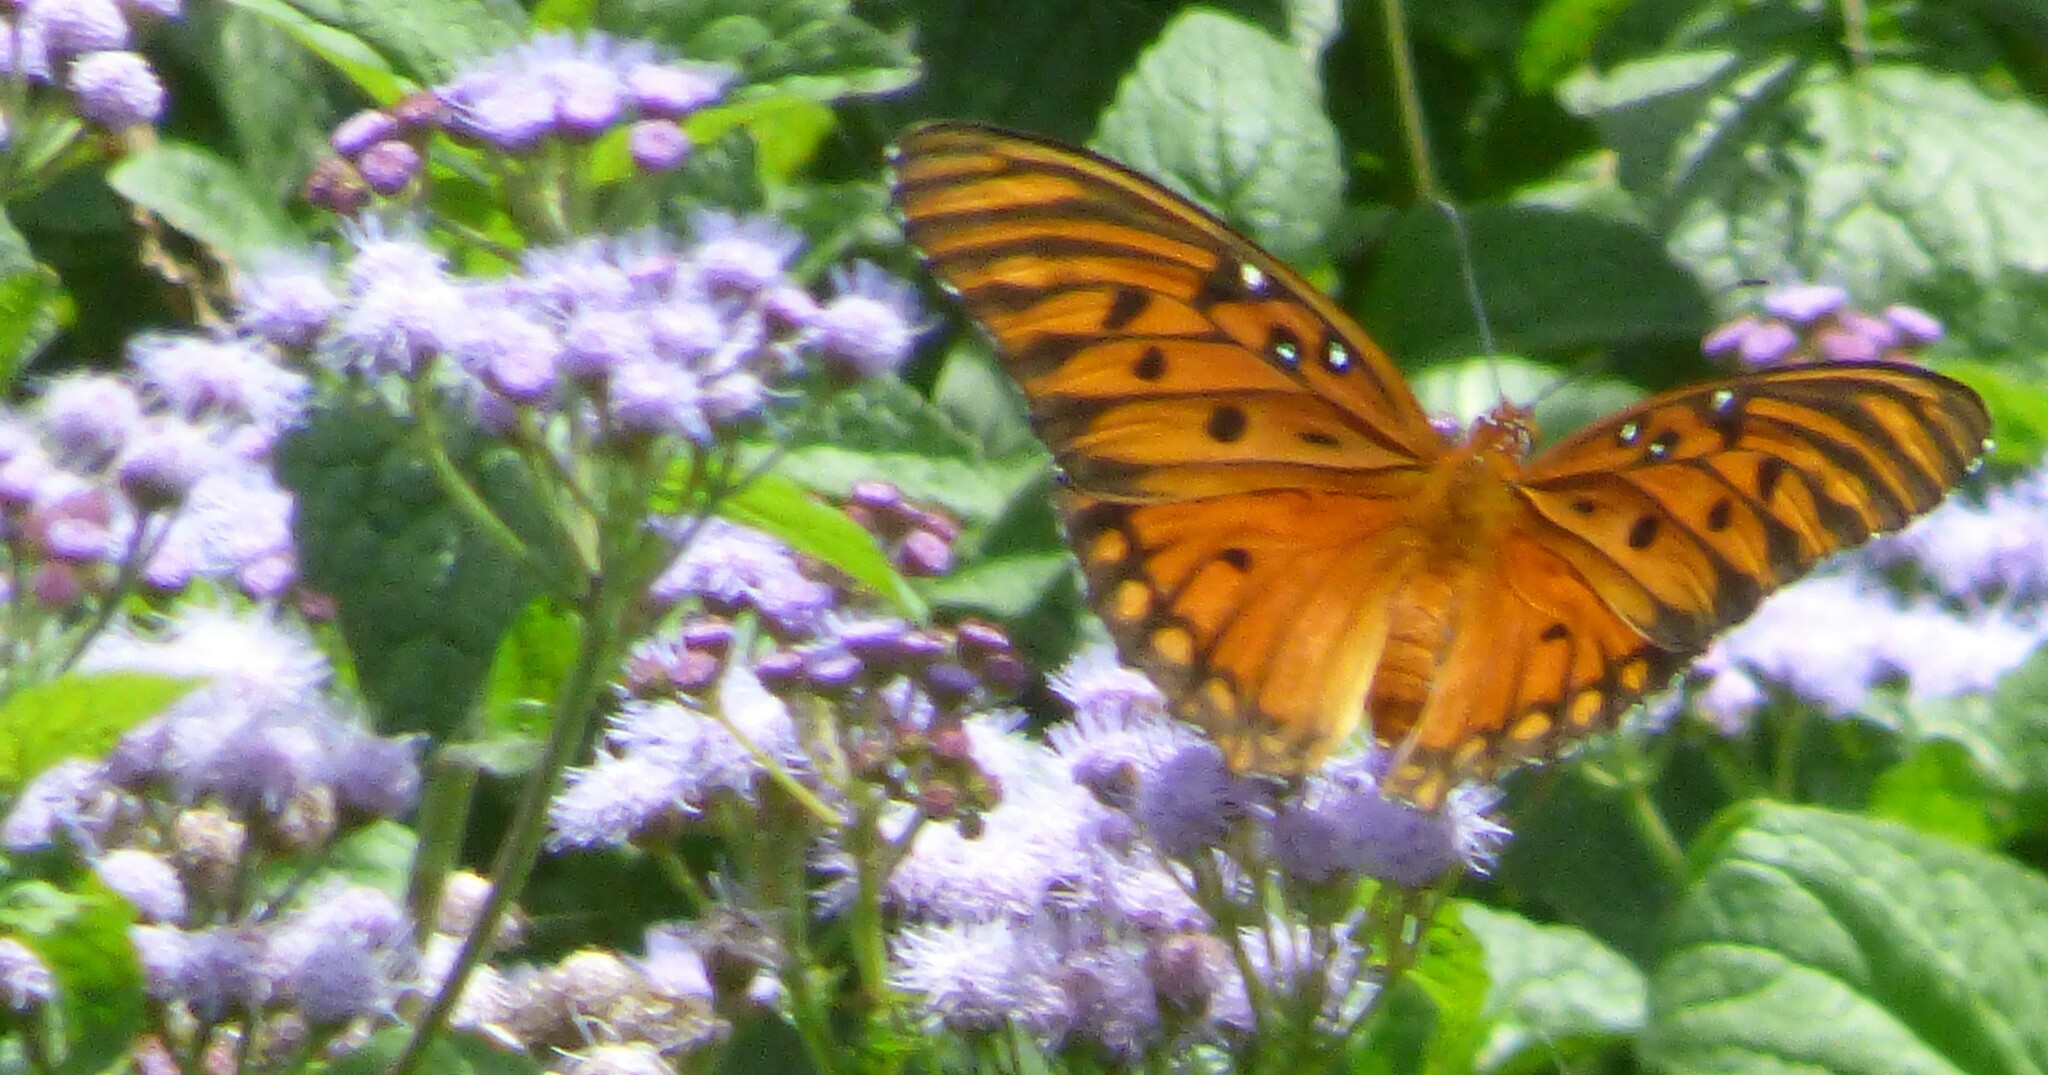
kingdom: Animalia
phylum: Arthropoda
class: Insecta
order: Lepidoptera
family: Nymphalidae
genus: Dione
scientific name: Dione vanillae
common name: Gulf fritillary
